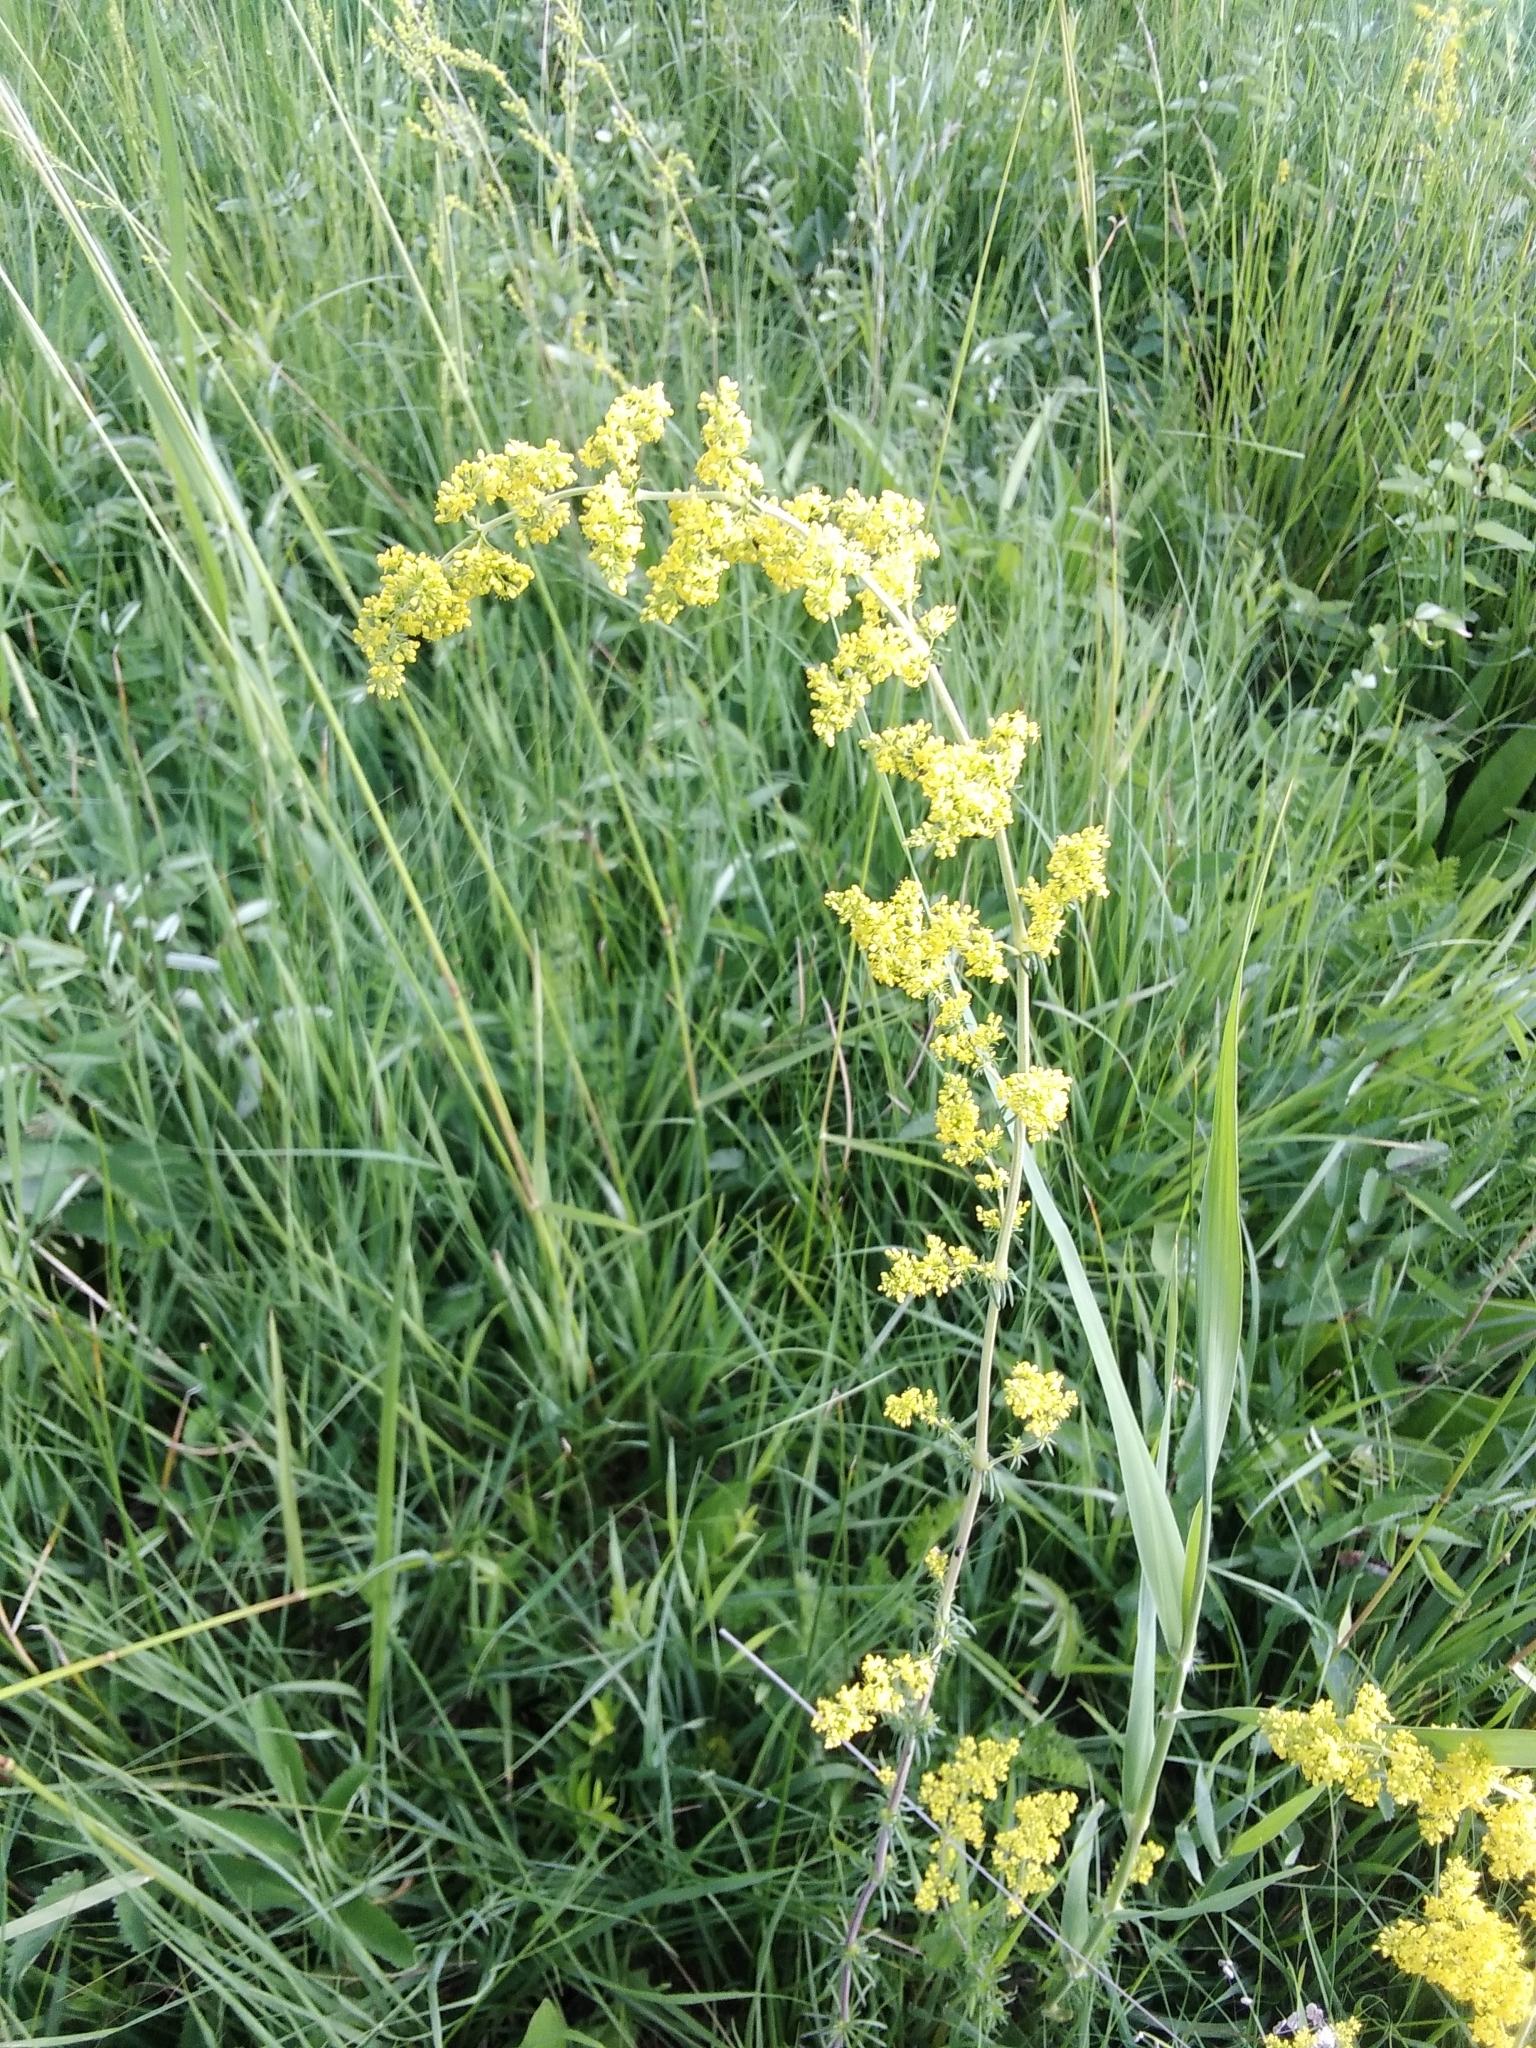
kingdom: Plantae
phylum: Tracheophyta
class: Magnoliopsida
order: Gentianales
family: Rubiaceae
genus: Galium
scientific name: Galium verum
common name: Lady's bedstraw
